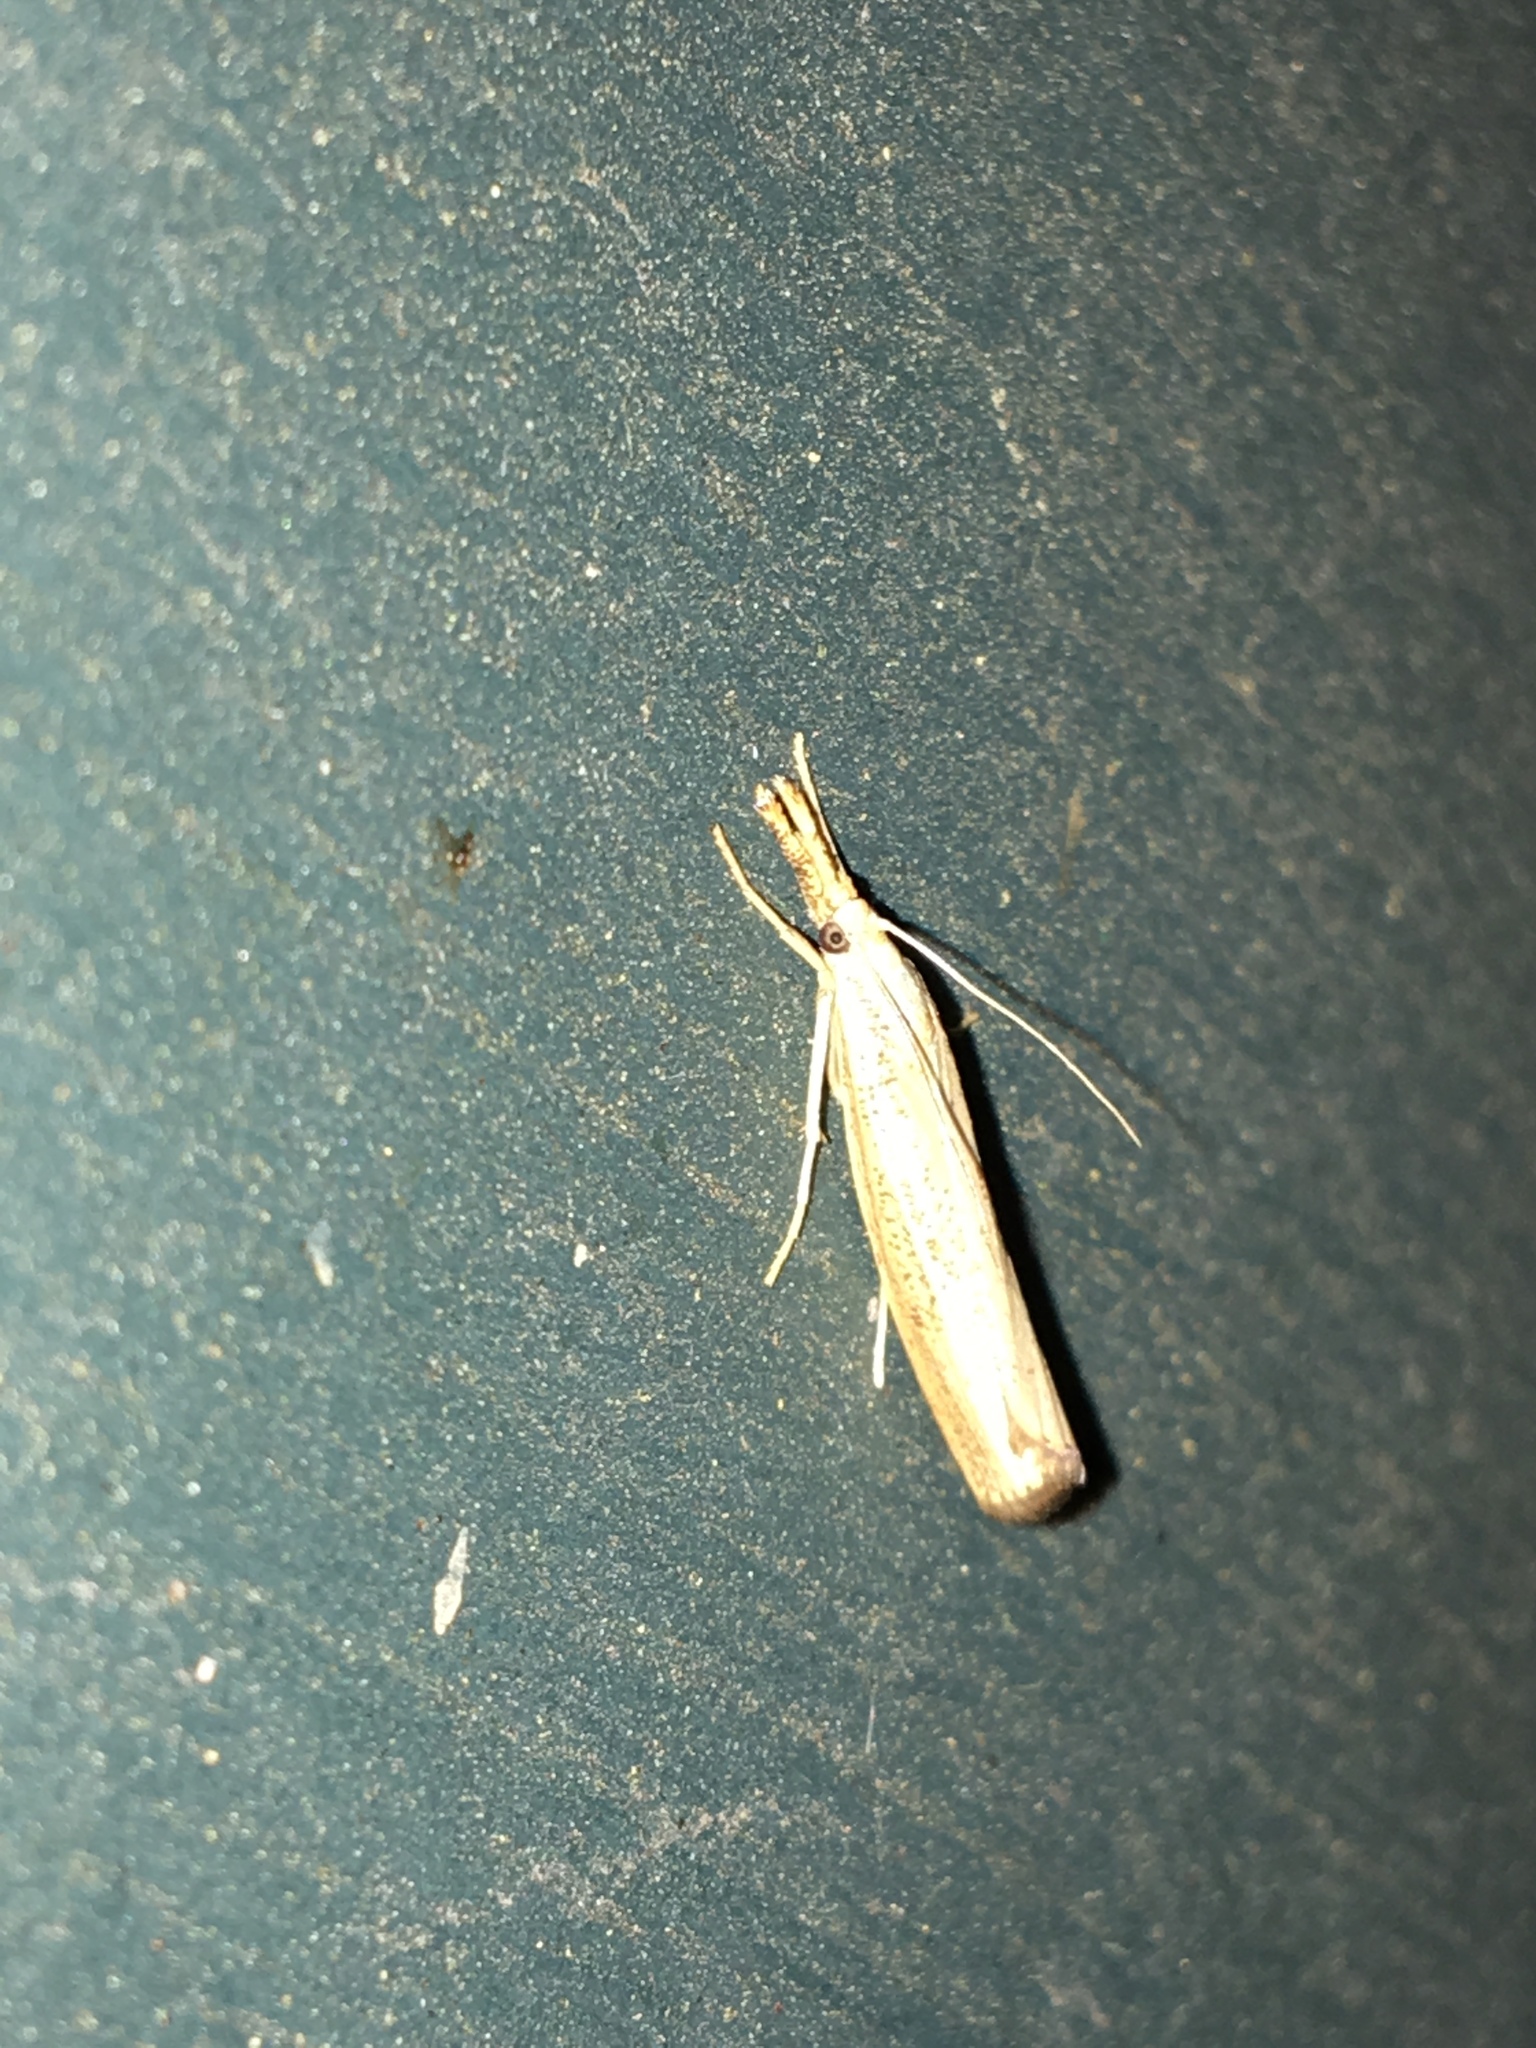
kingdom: Animalia
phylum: Arthropoda
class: Insecta
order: Lepidoptera
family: Crambidae
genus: Agriphila
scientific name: Agriphila vulgivagellus
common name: Vagabond crambus moth
